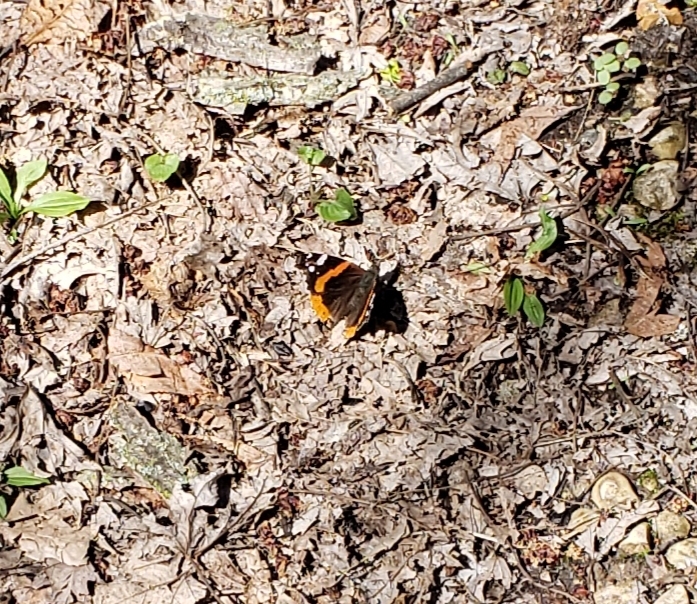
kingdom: Animalia
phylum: Arthropoda
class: Insecta
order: Lepidoptera
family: Nymphalidae
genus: Vanessa
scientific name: Vanessa atalanta
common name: Red admiral
